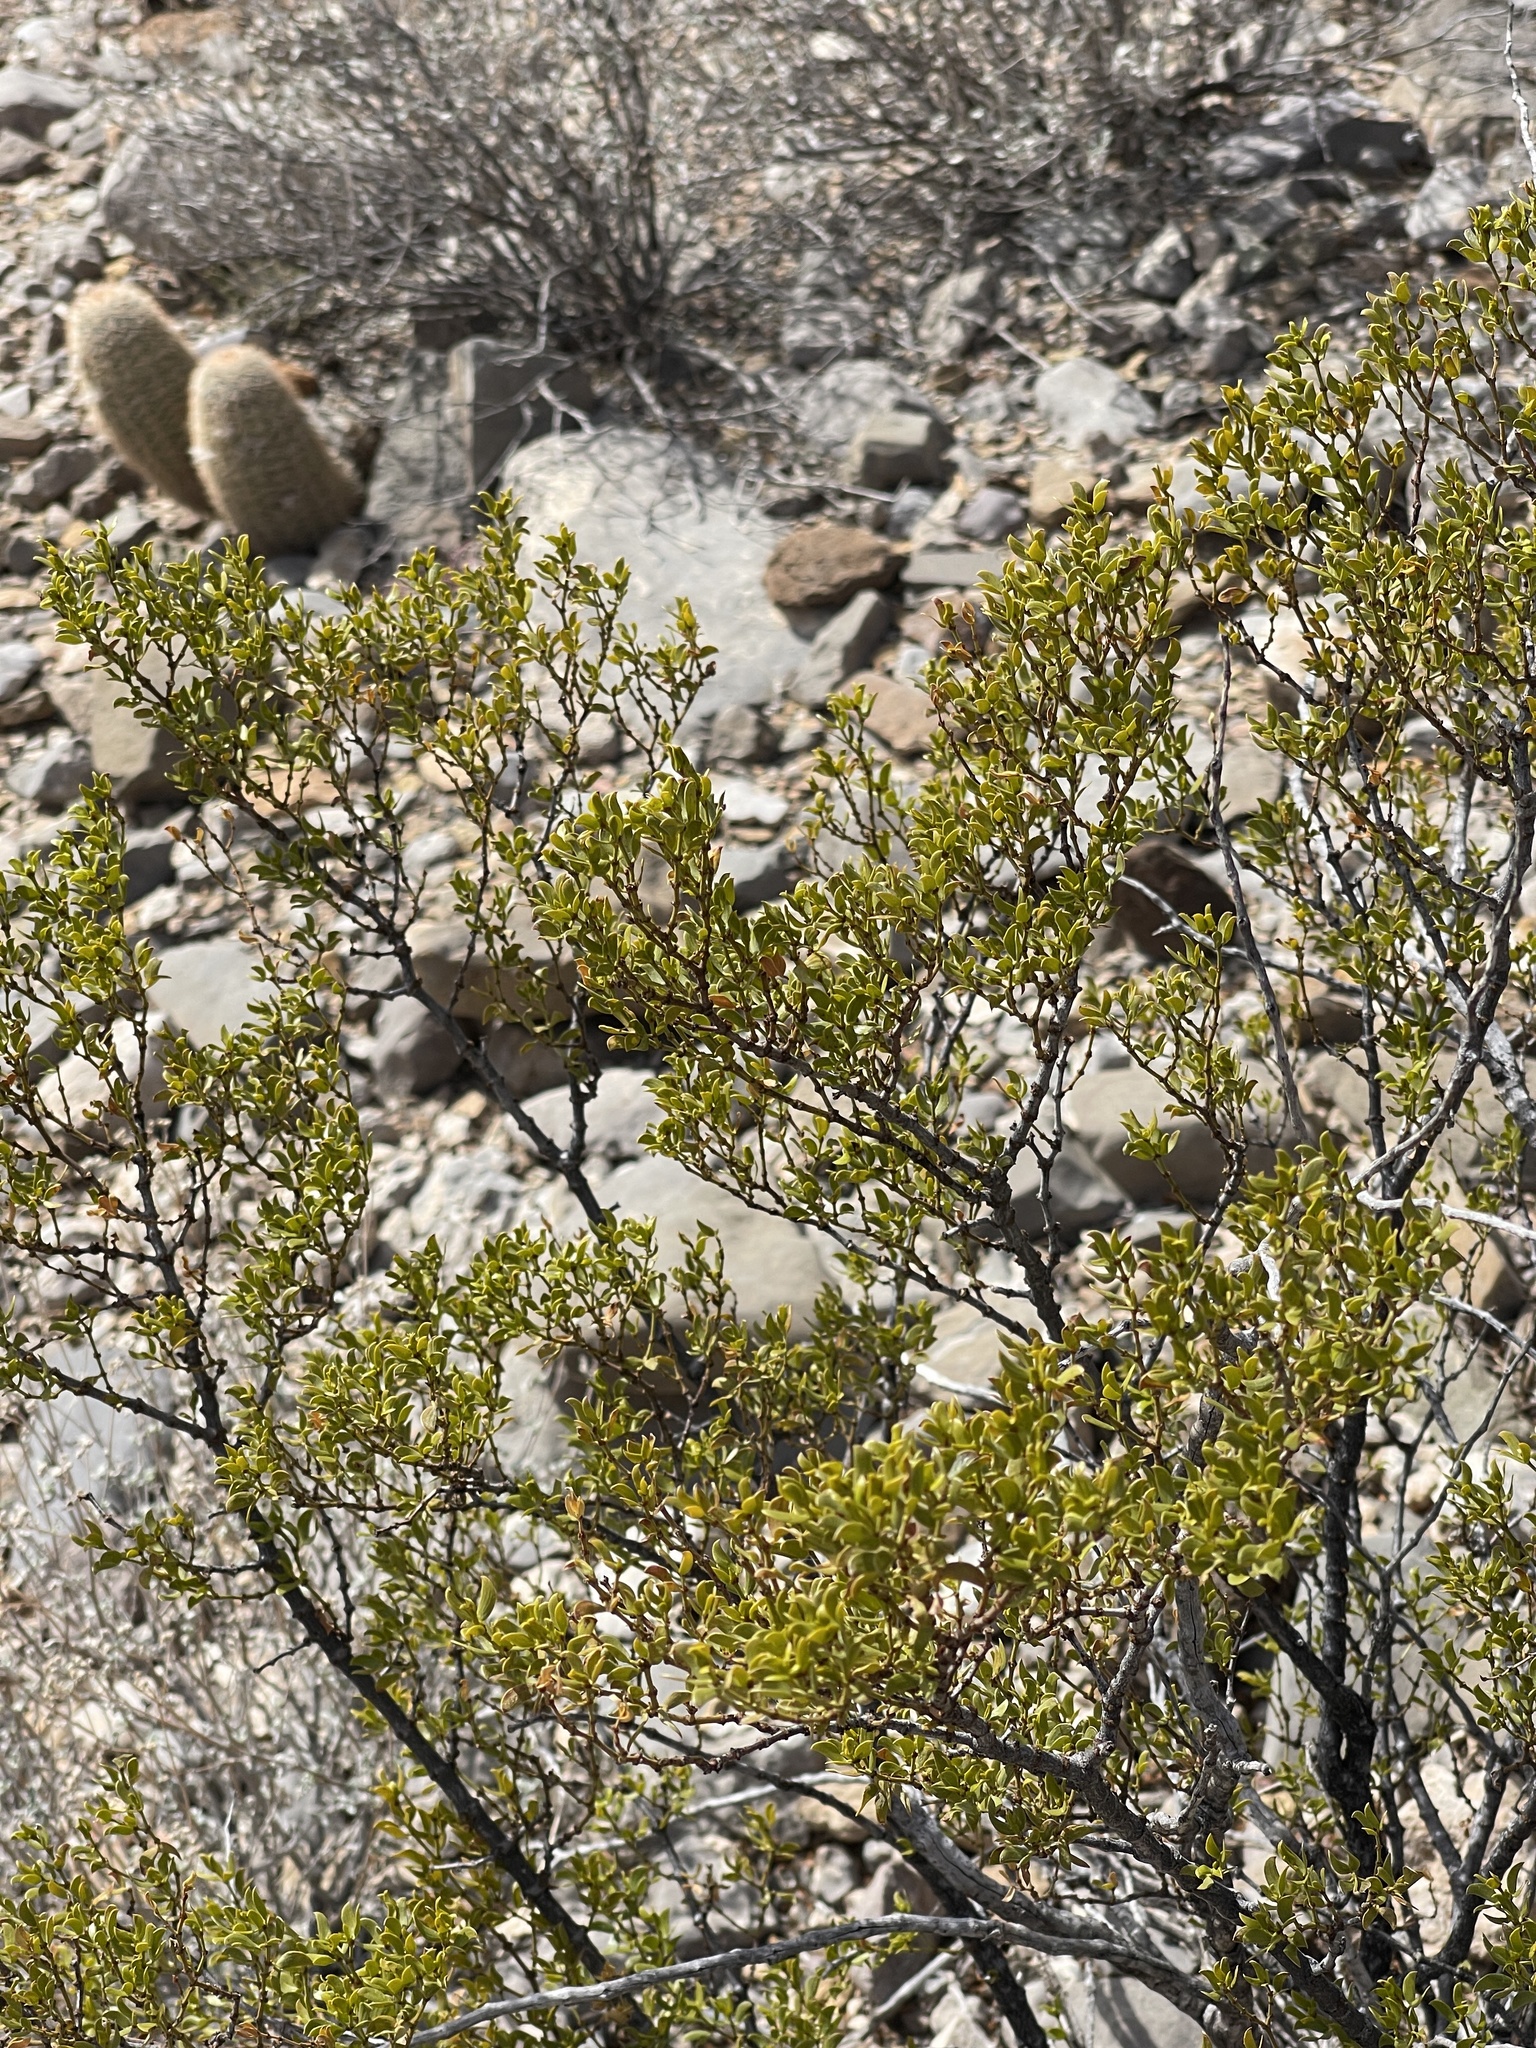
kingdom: Plantae
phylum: Tracheophyta
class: Magnoliopsida
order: Zygophyllales
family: Zygophyllaceae
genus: Larrea
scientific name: Larrea tridentata
